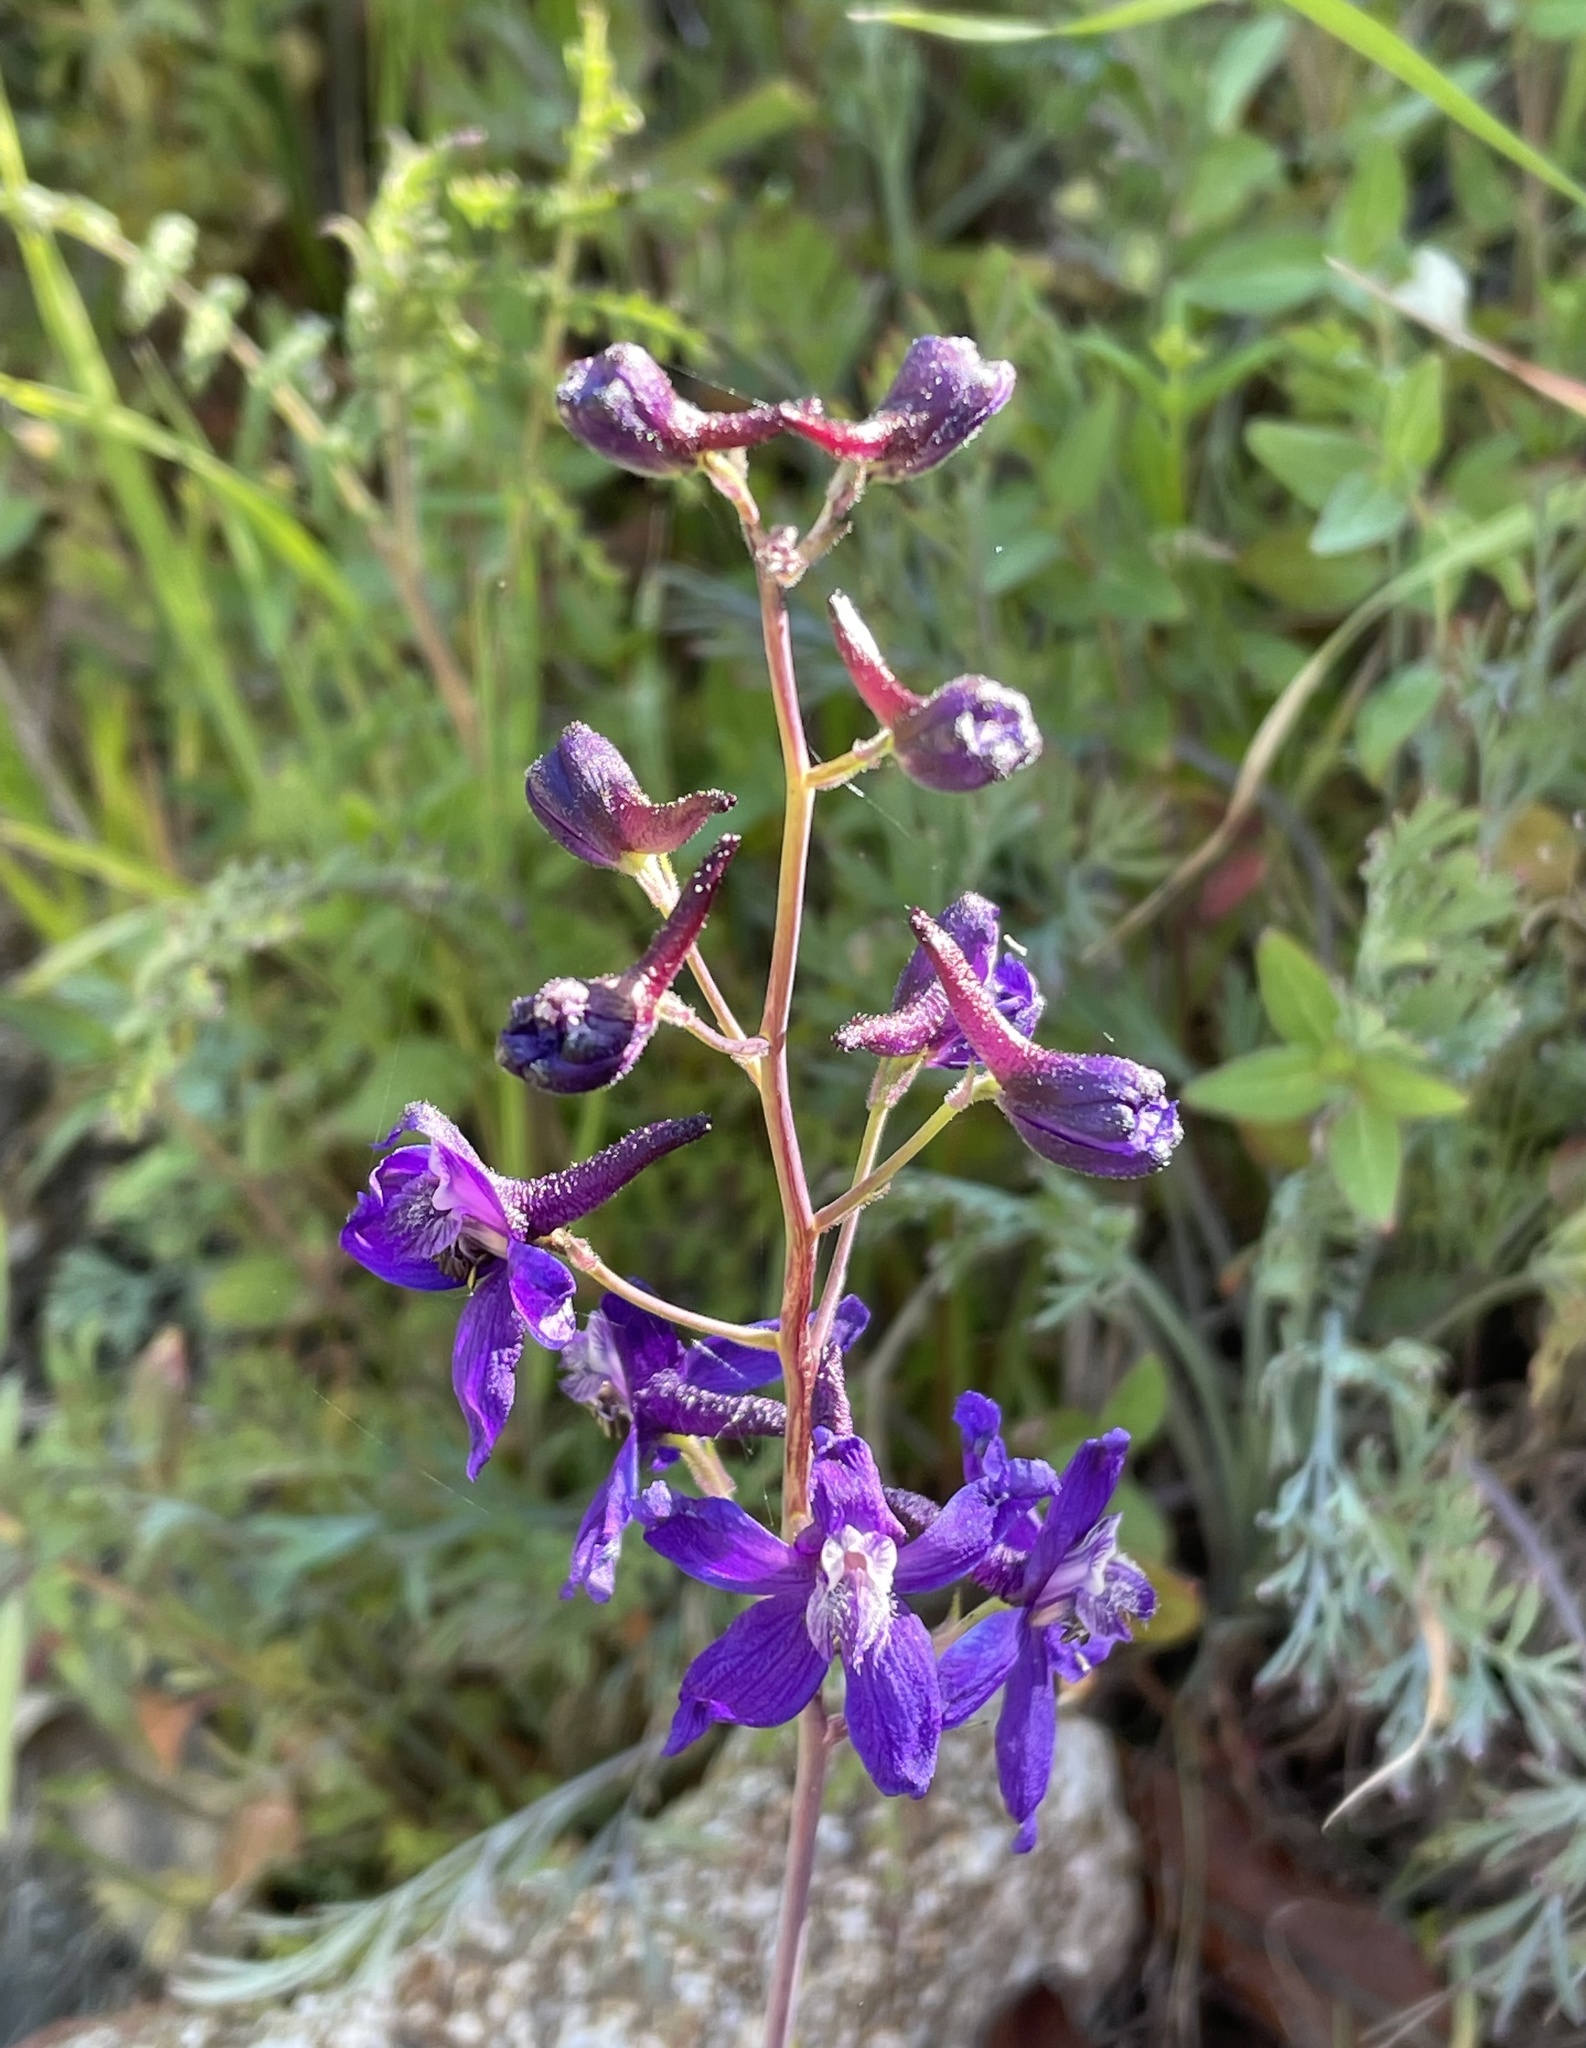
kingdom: Plantae
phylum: Tracheophyta
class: Magnoliopsida
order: Ranunculales
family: Ranunculaceae
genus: Delphinium
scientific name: Delphinium patens
